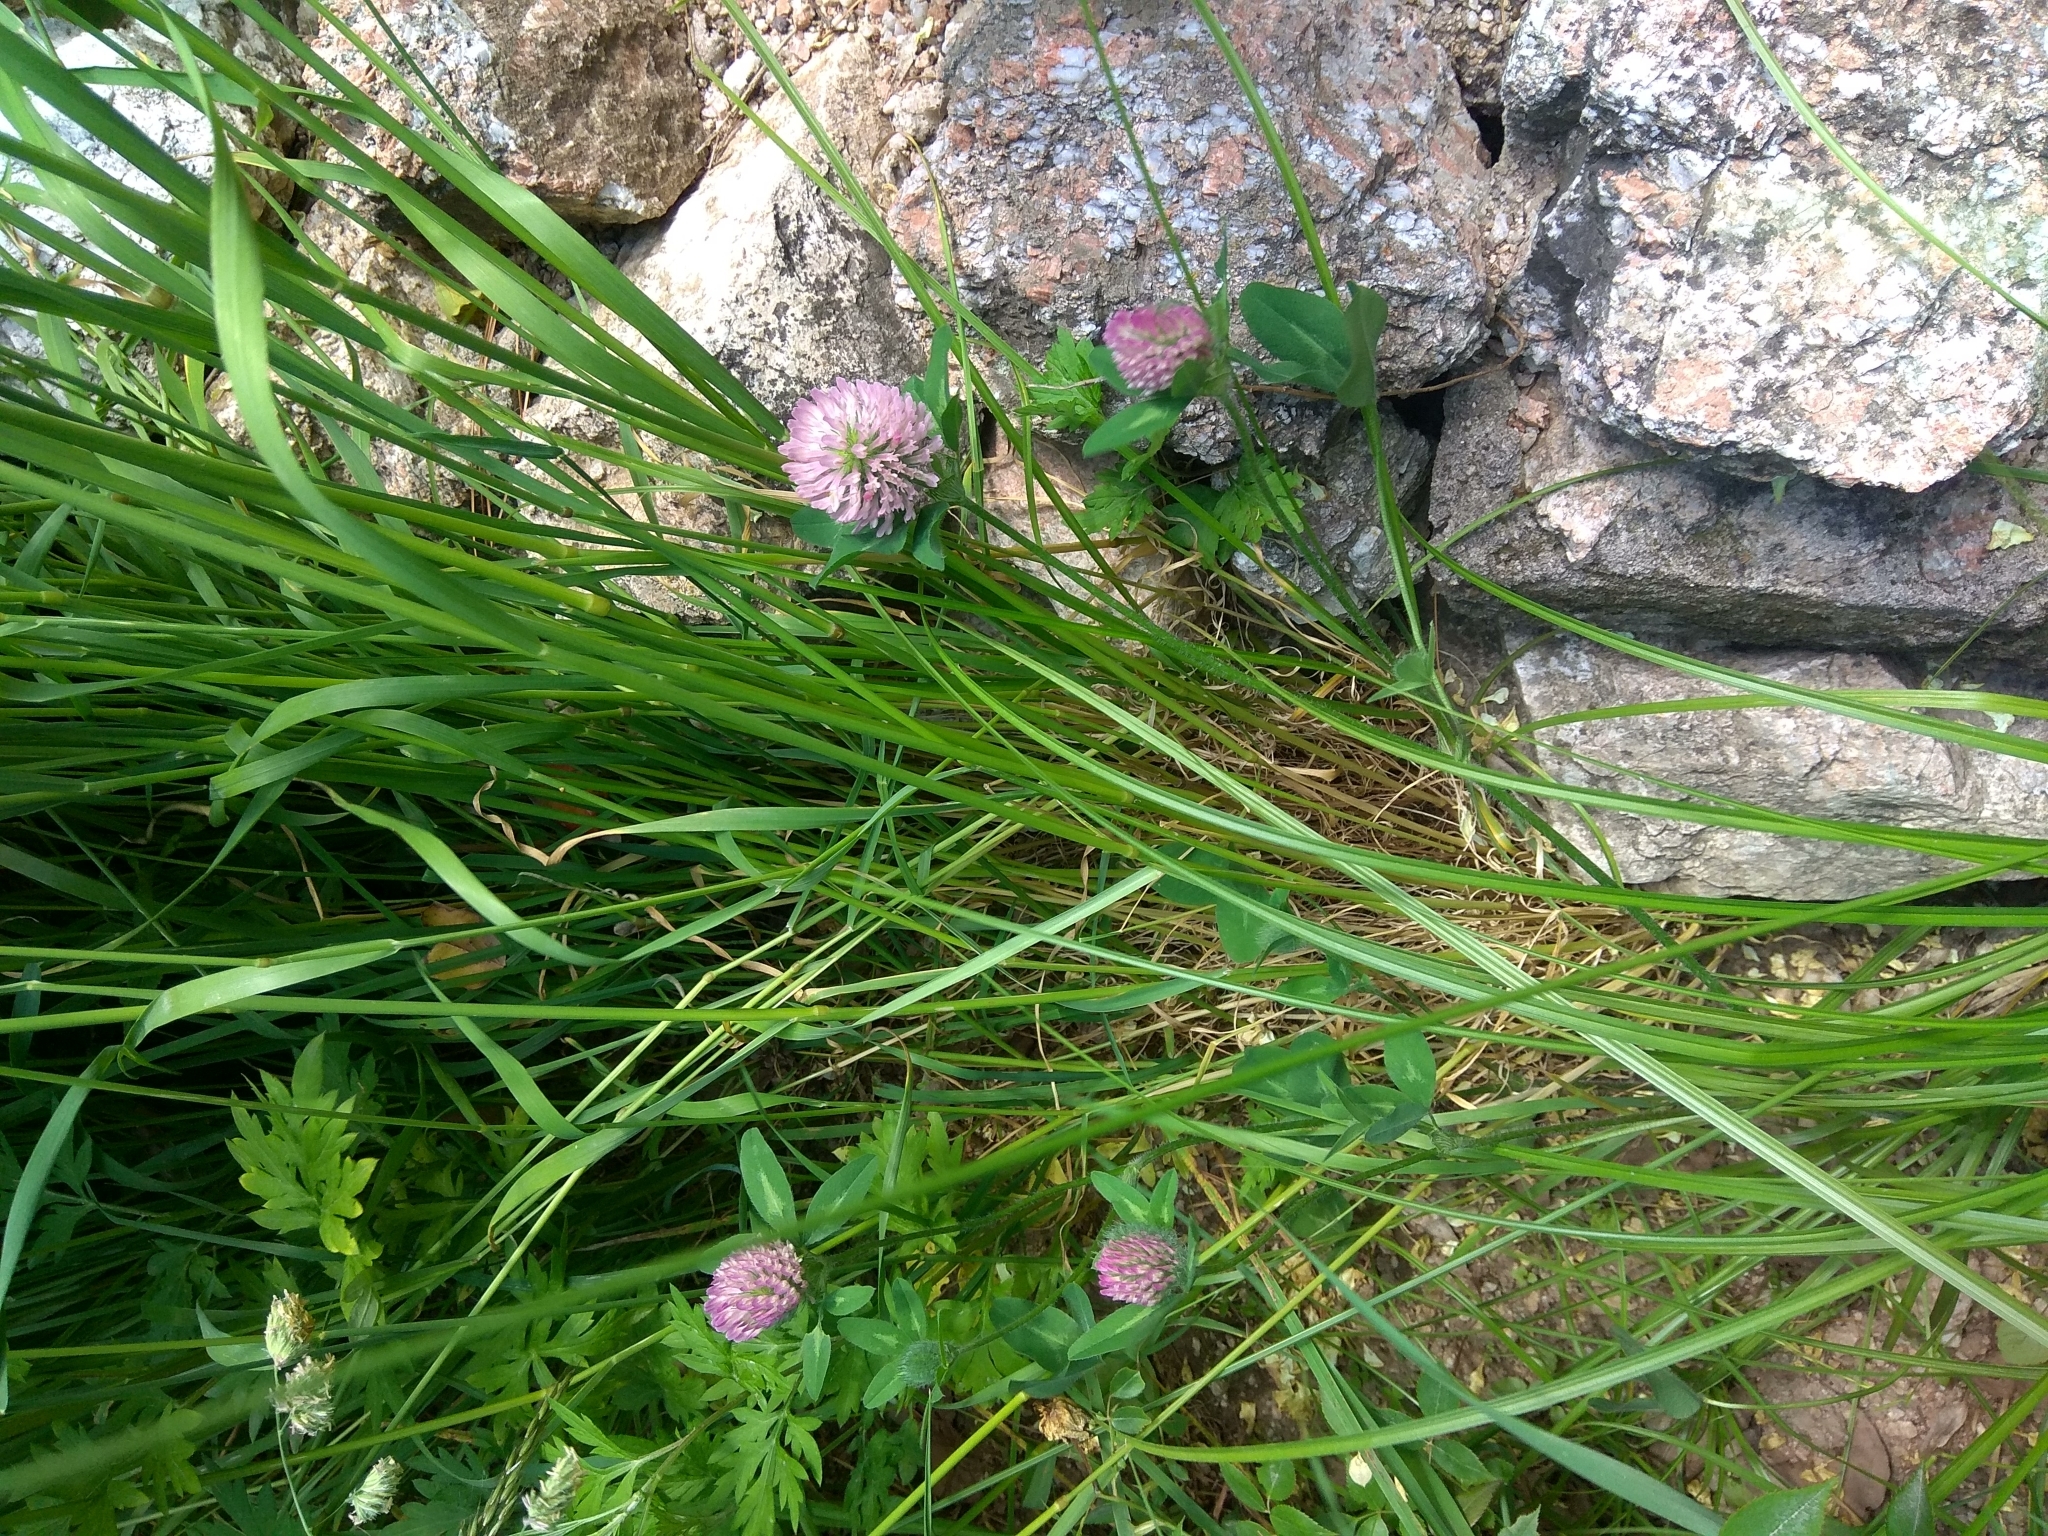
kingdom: Plantae
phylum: Tracheophyta
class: Magnoliopsida
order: Fabales
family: Fabaceae
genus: Trifolium
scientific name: Trifolium pratense
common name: Red clover
